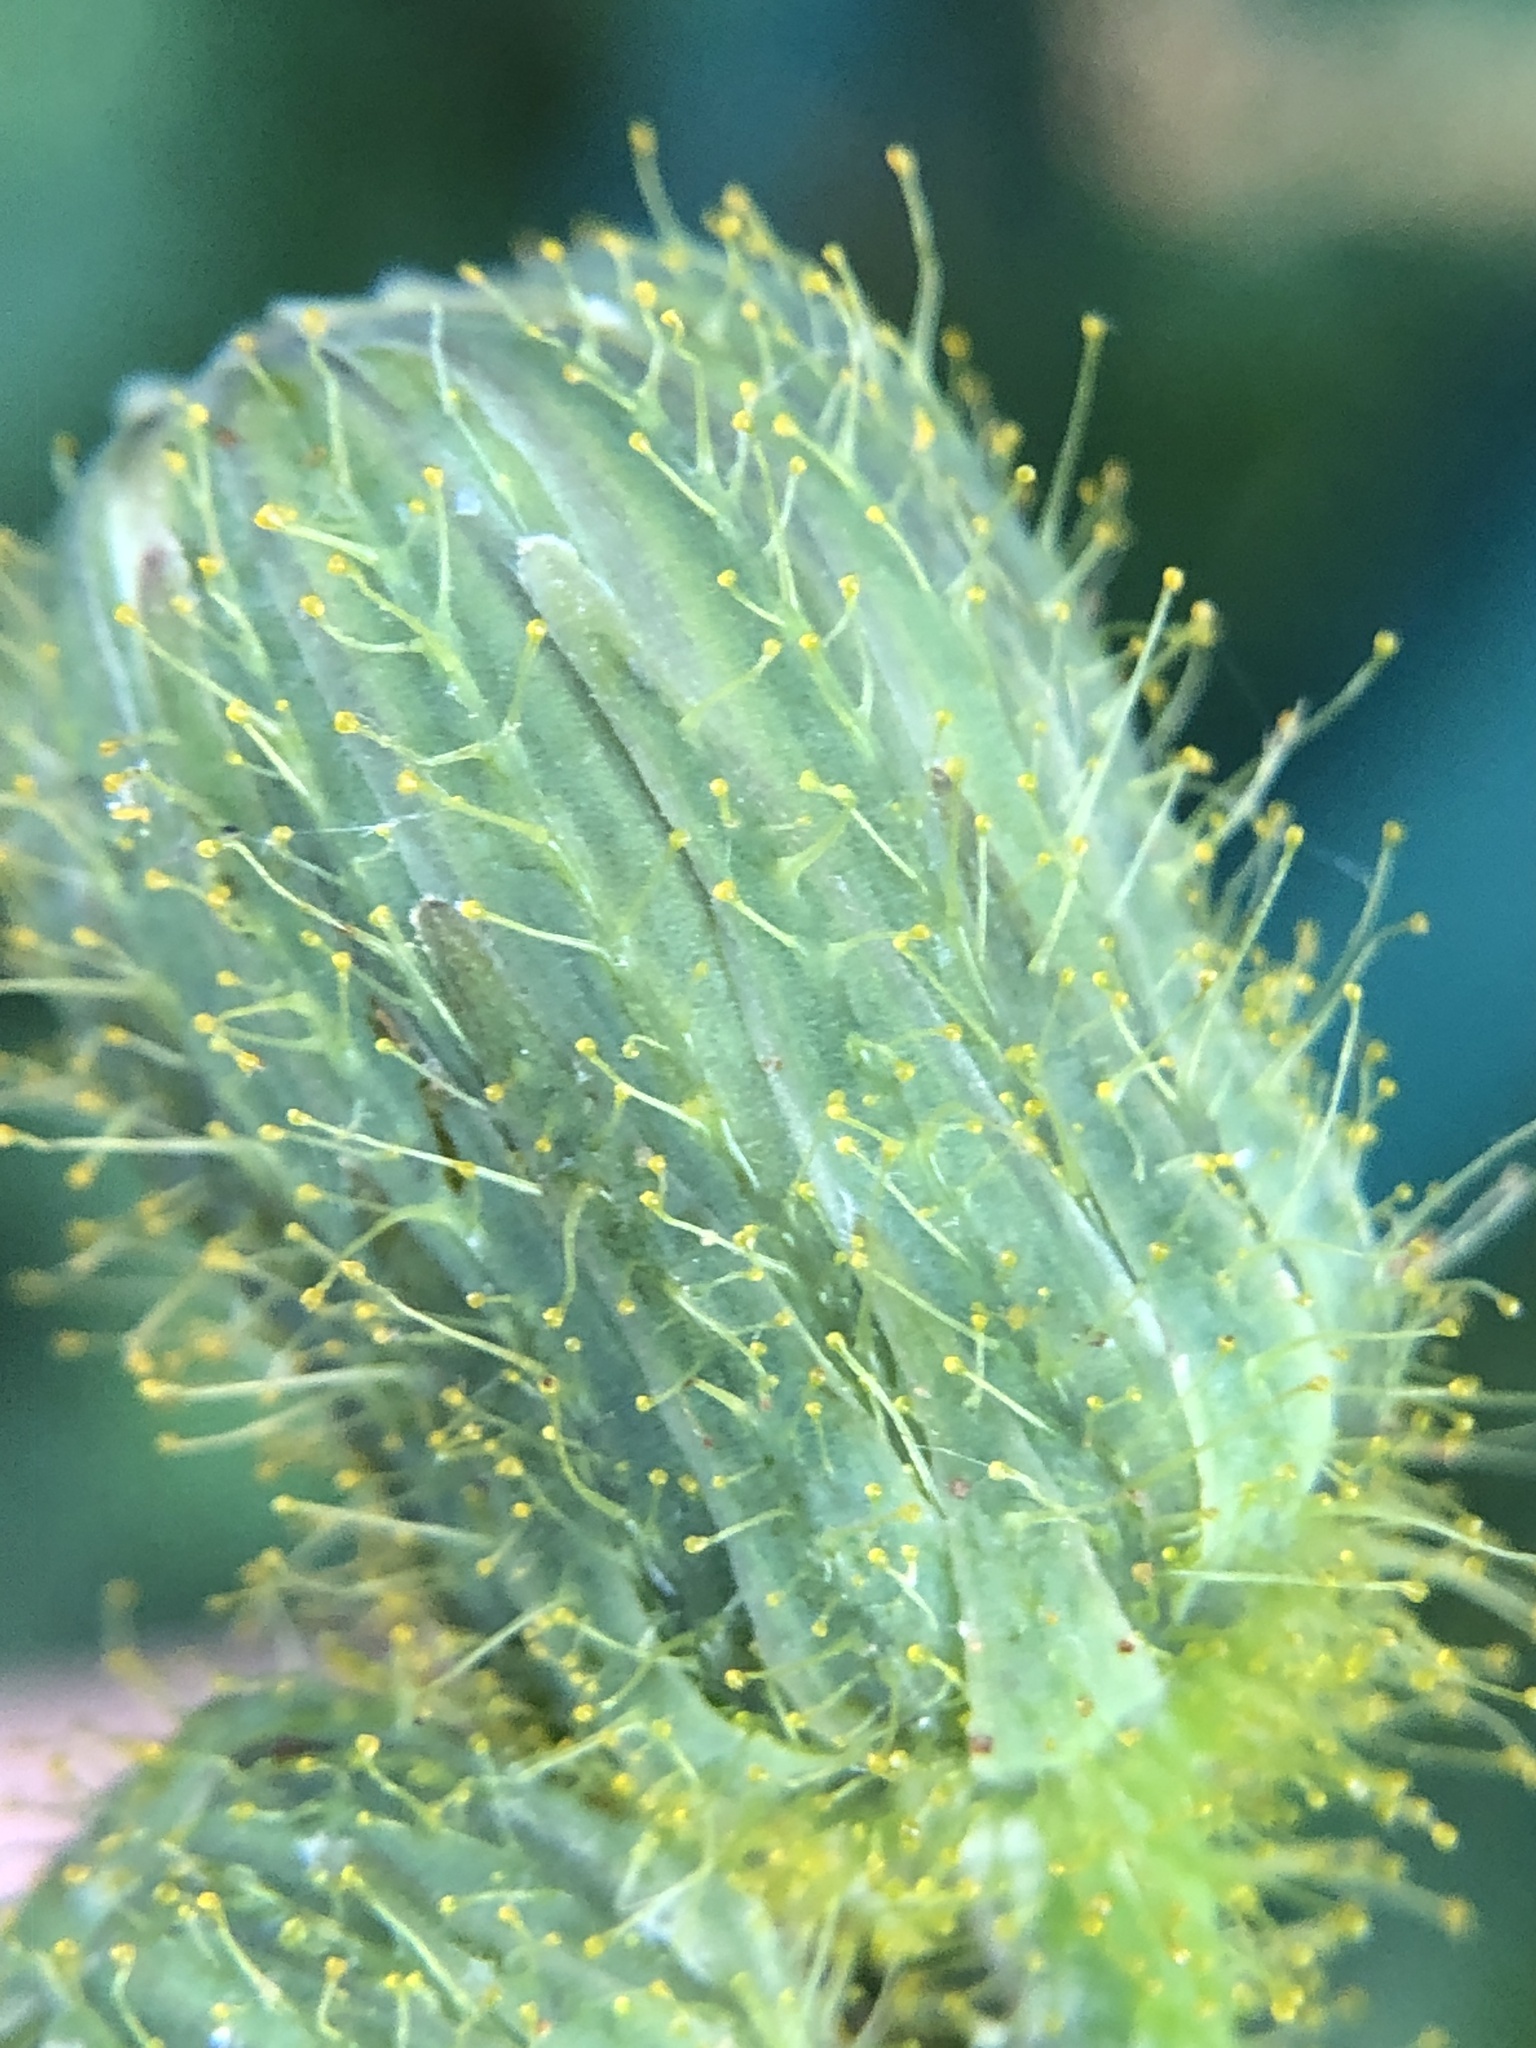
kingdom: Plantae
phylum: Tracheophyta
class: Magnoliopsida
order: Asterales
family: Asteraceae
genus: Sonchus
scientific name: Sonchus arvensis
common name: Perennial sow-thistle
